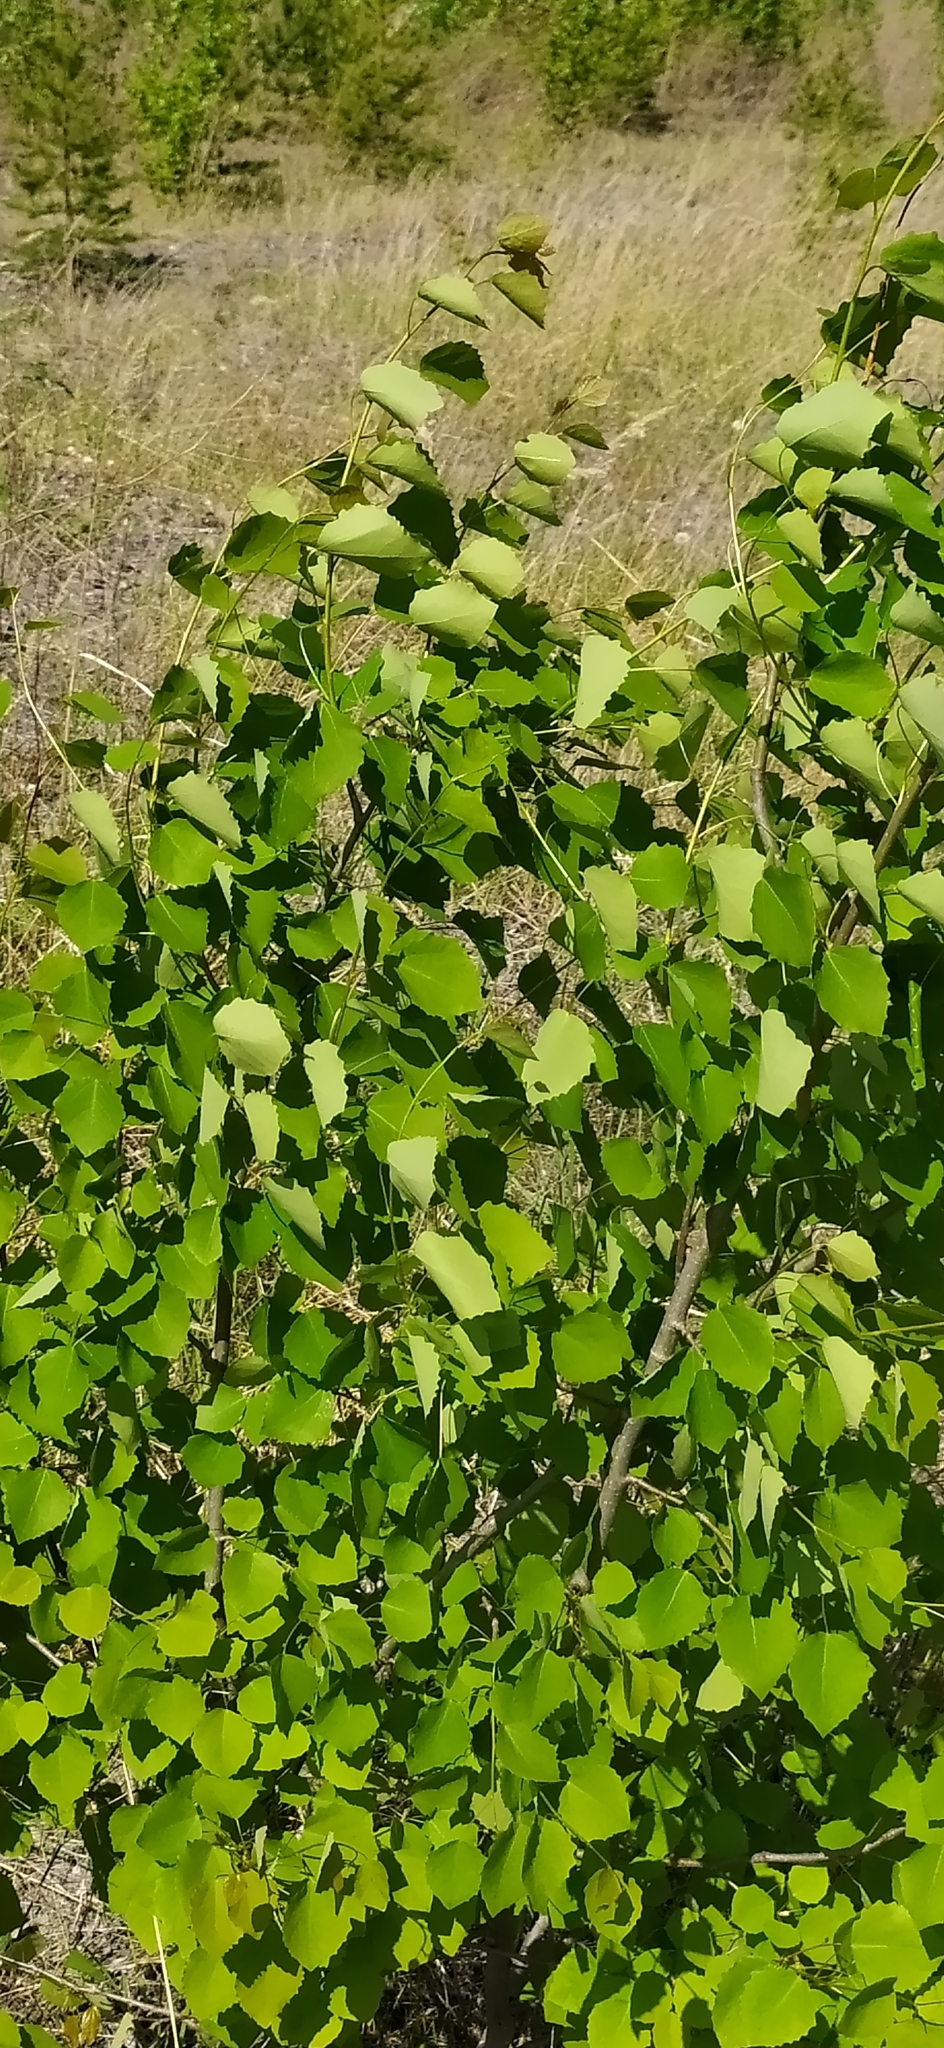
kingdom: Plantae
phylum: Tracheophyta
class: Magnoliopsida
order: Malpighiales
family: Salicaceae
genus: Populus
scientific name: Populus tremula
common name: European aspen
